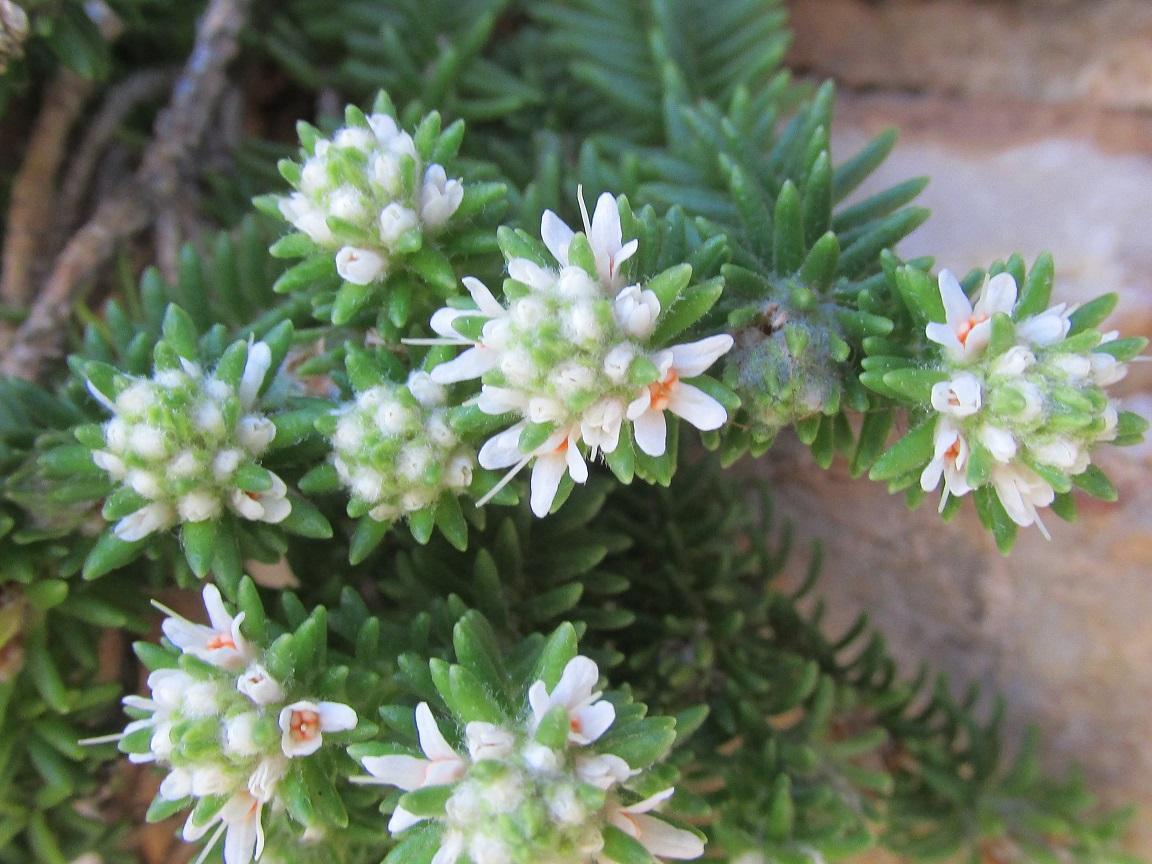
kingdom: Plantae
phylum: Tracheophyta
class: Magnoliopsida
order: Lamiales
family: Stilbaceae
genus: Stilbe
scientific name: Stilbe rupestris
